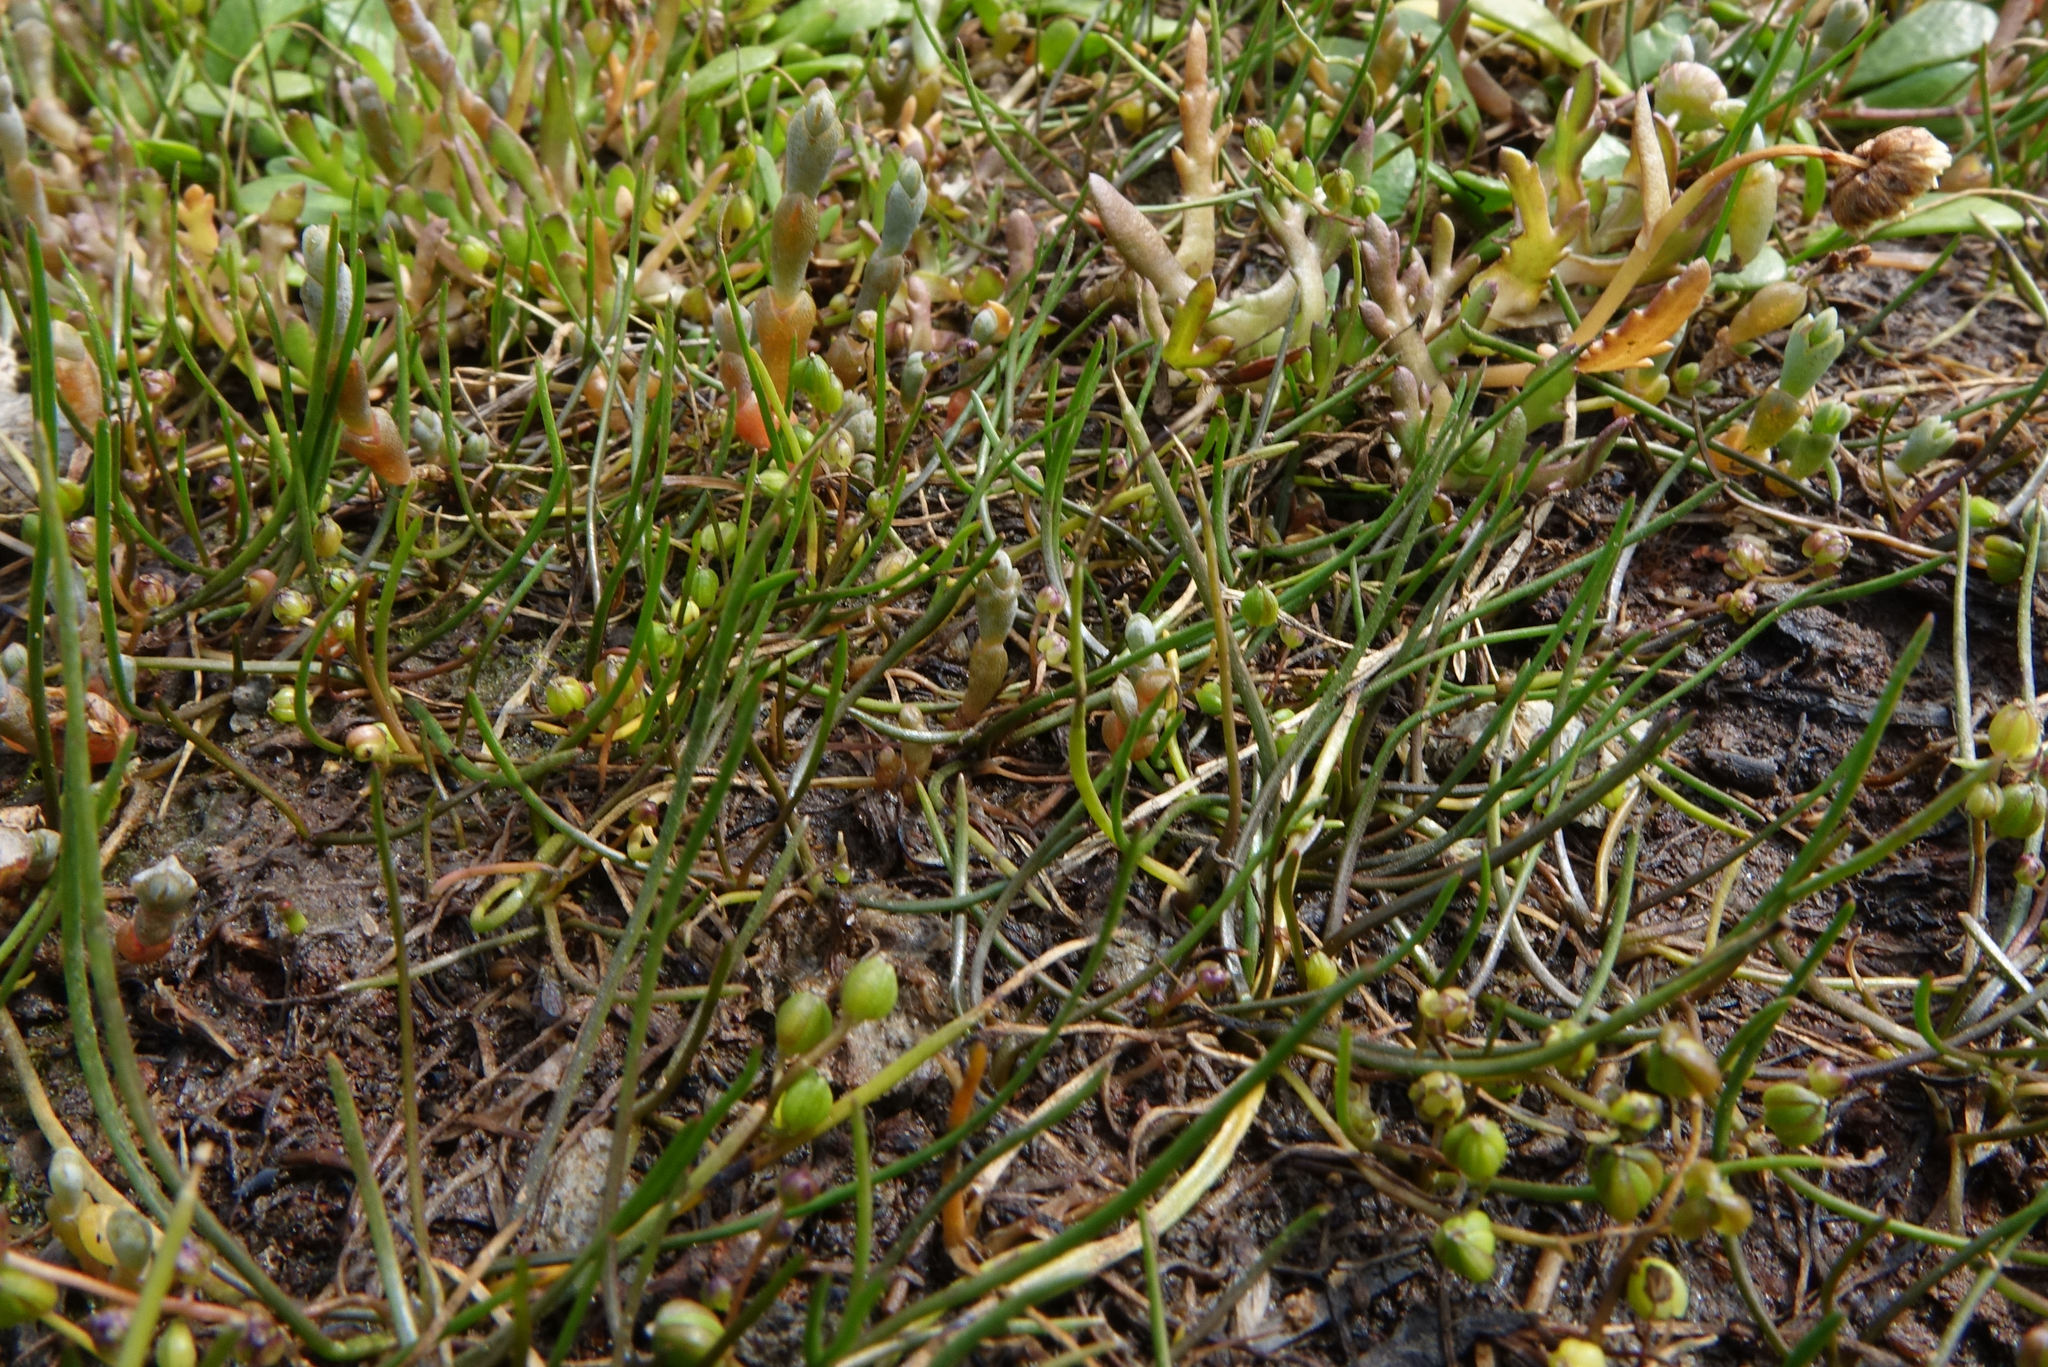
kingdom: Plantae
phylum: Tracheophyta
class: Liliopsida
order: Alismatales
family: Juncaginaceae
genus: Triglochin
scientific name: Triglochin striata
